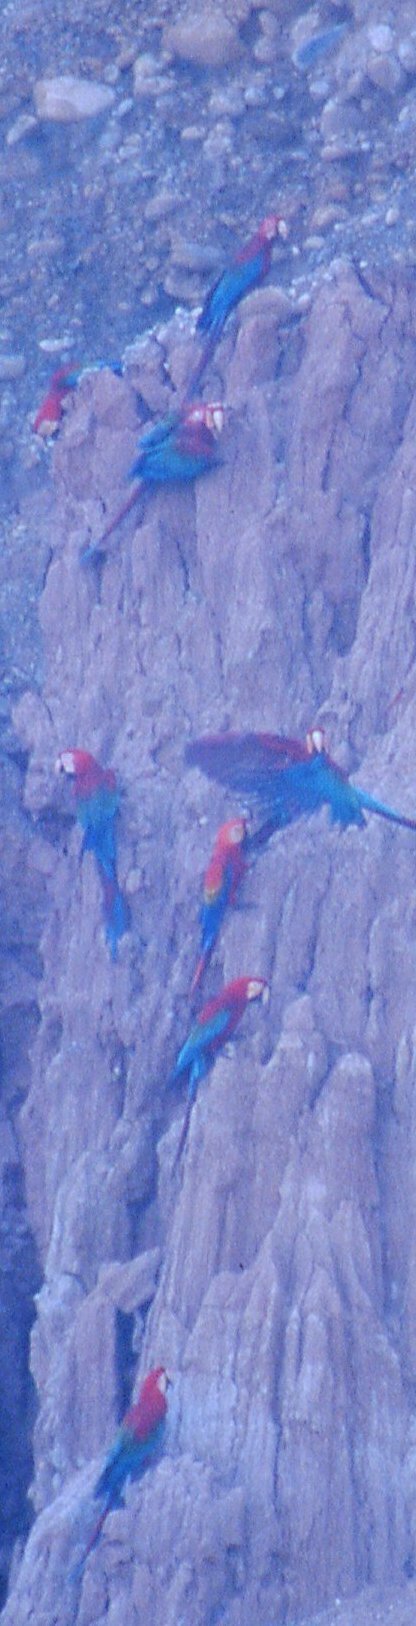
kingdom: Animalia
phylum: Chordata
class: Aves
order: Psittaciformes
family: Psittacidae
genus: Ara
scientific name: Ara chloropterus
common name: Red-and-green macaw
